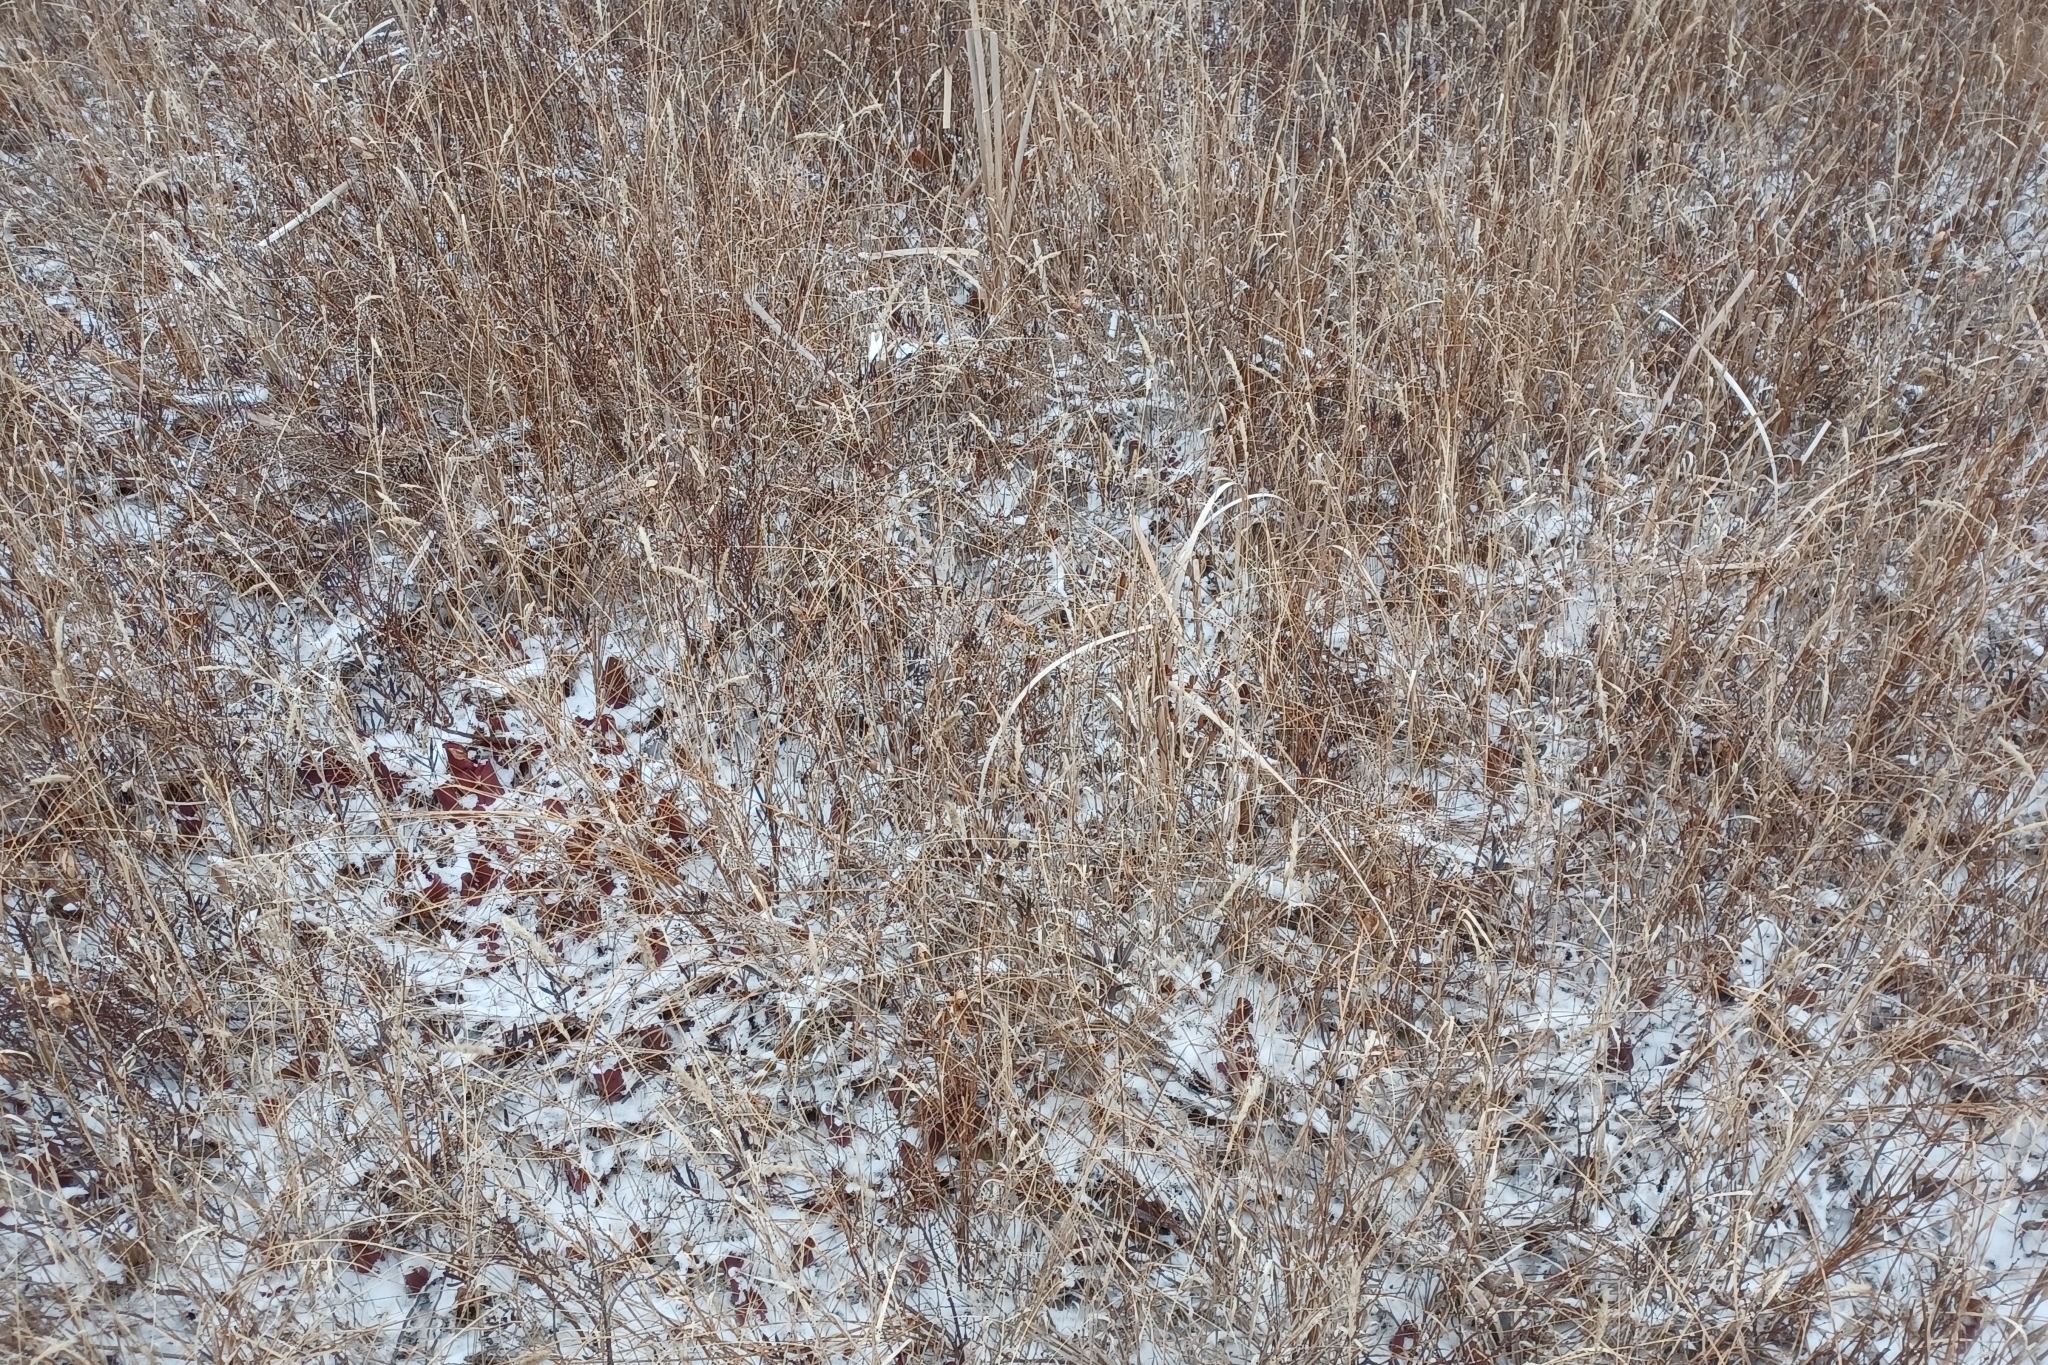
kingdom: Plantae
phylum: Tracheophyta
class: Liliopsida
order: Poales
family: Poaceae
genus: Muhlenbergia
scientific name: Muhlenbergia glomerata
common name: Bog muhly
